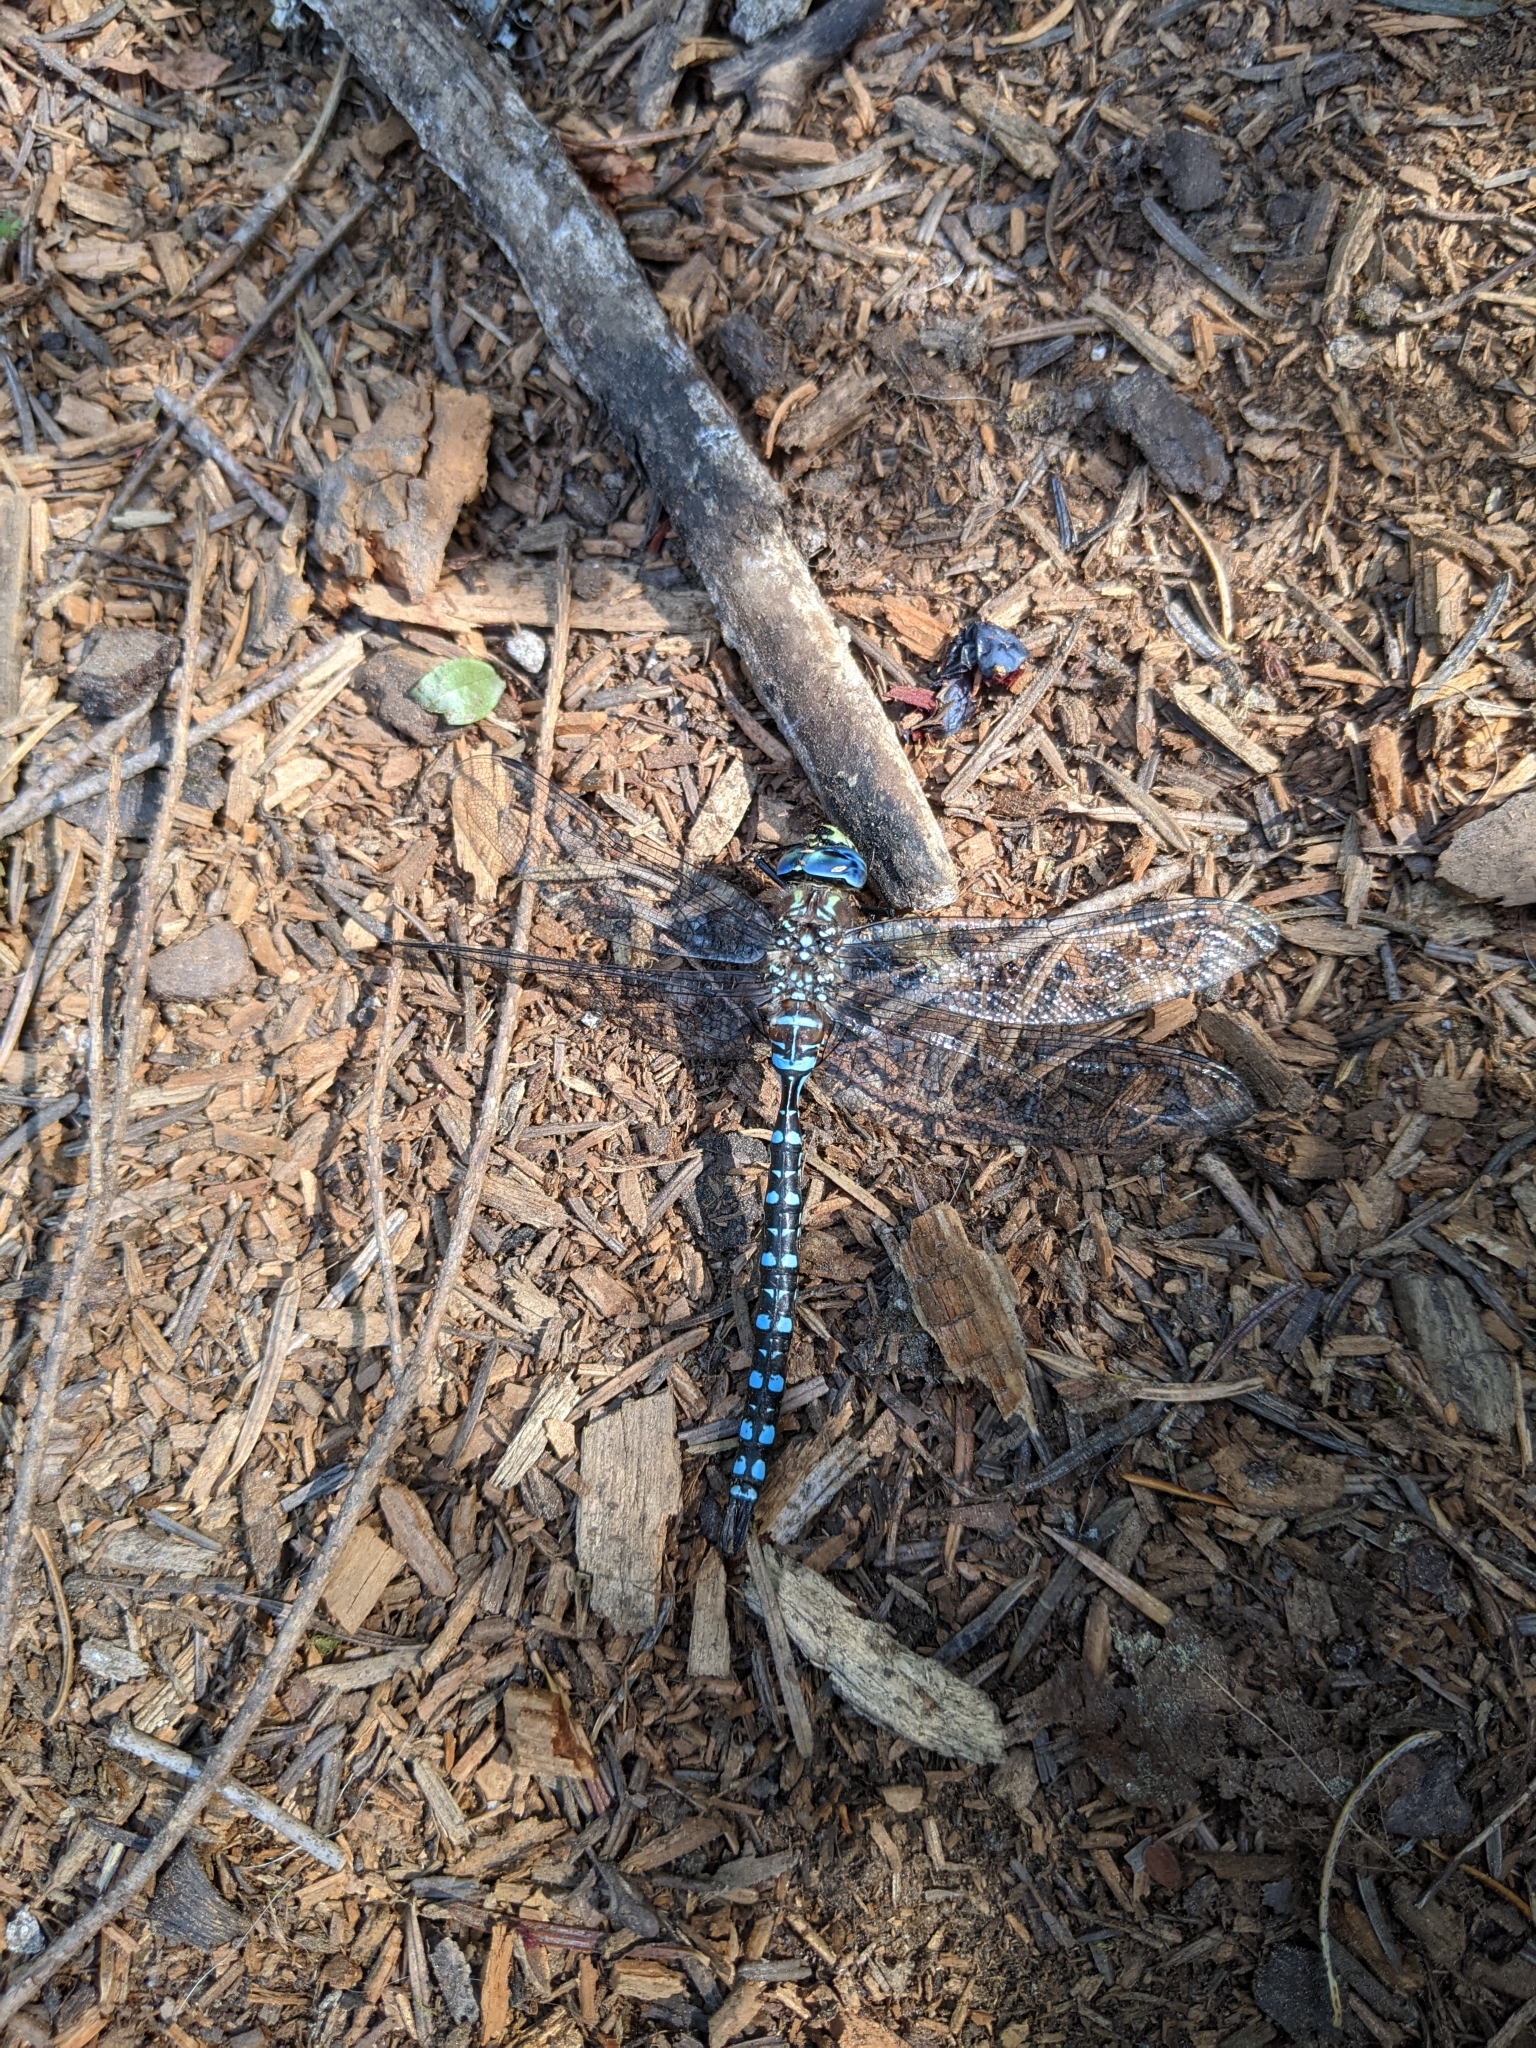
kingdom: Animalia
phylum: Arthropoda
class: Insecta
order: Odonata
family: Aeshnidae
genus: Aeshna
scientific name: Aeshna palmata
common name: Paddle-tailed darner
